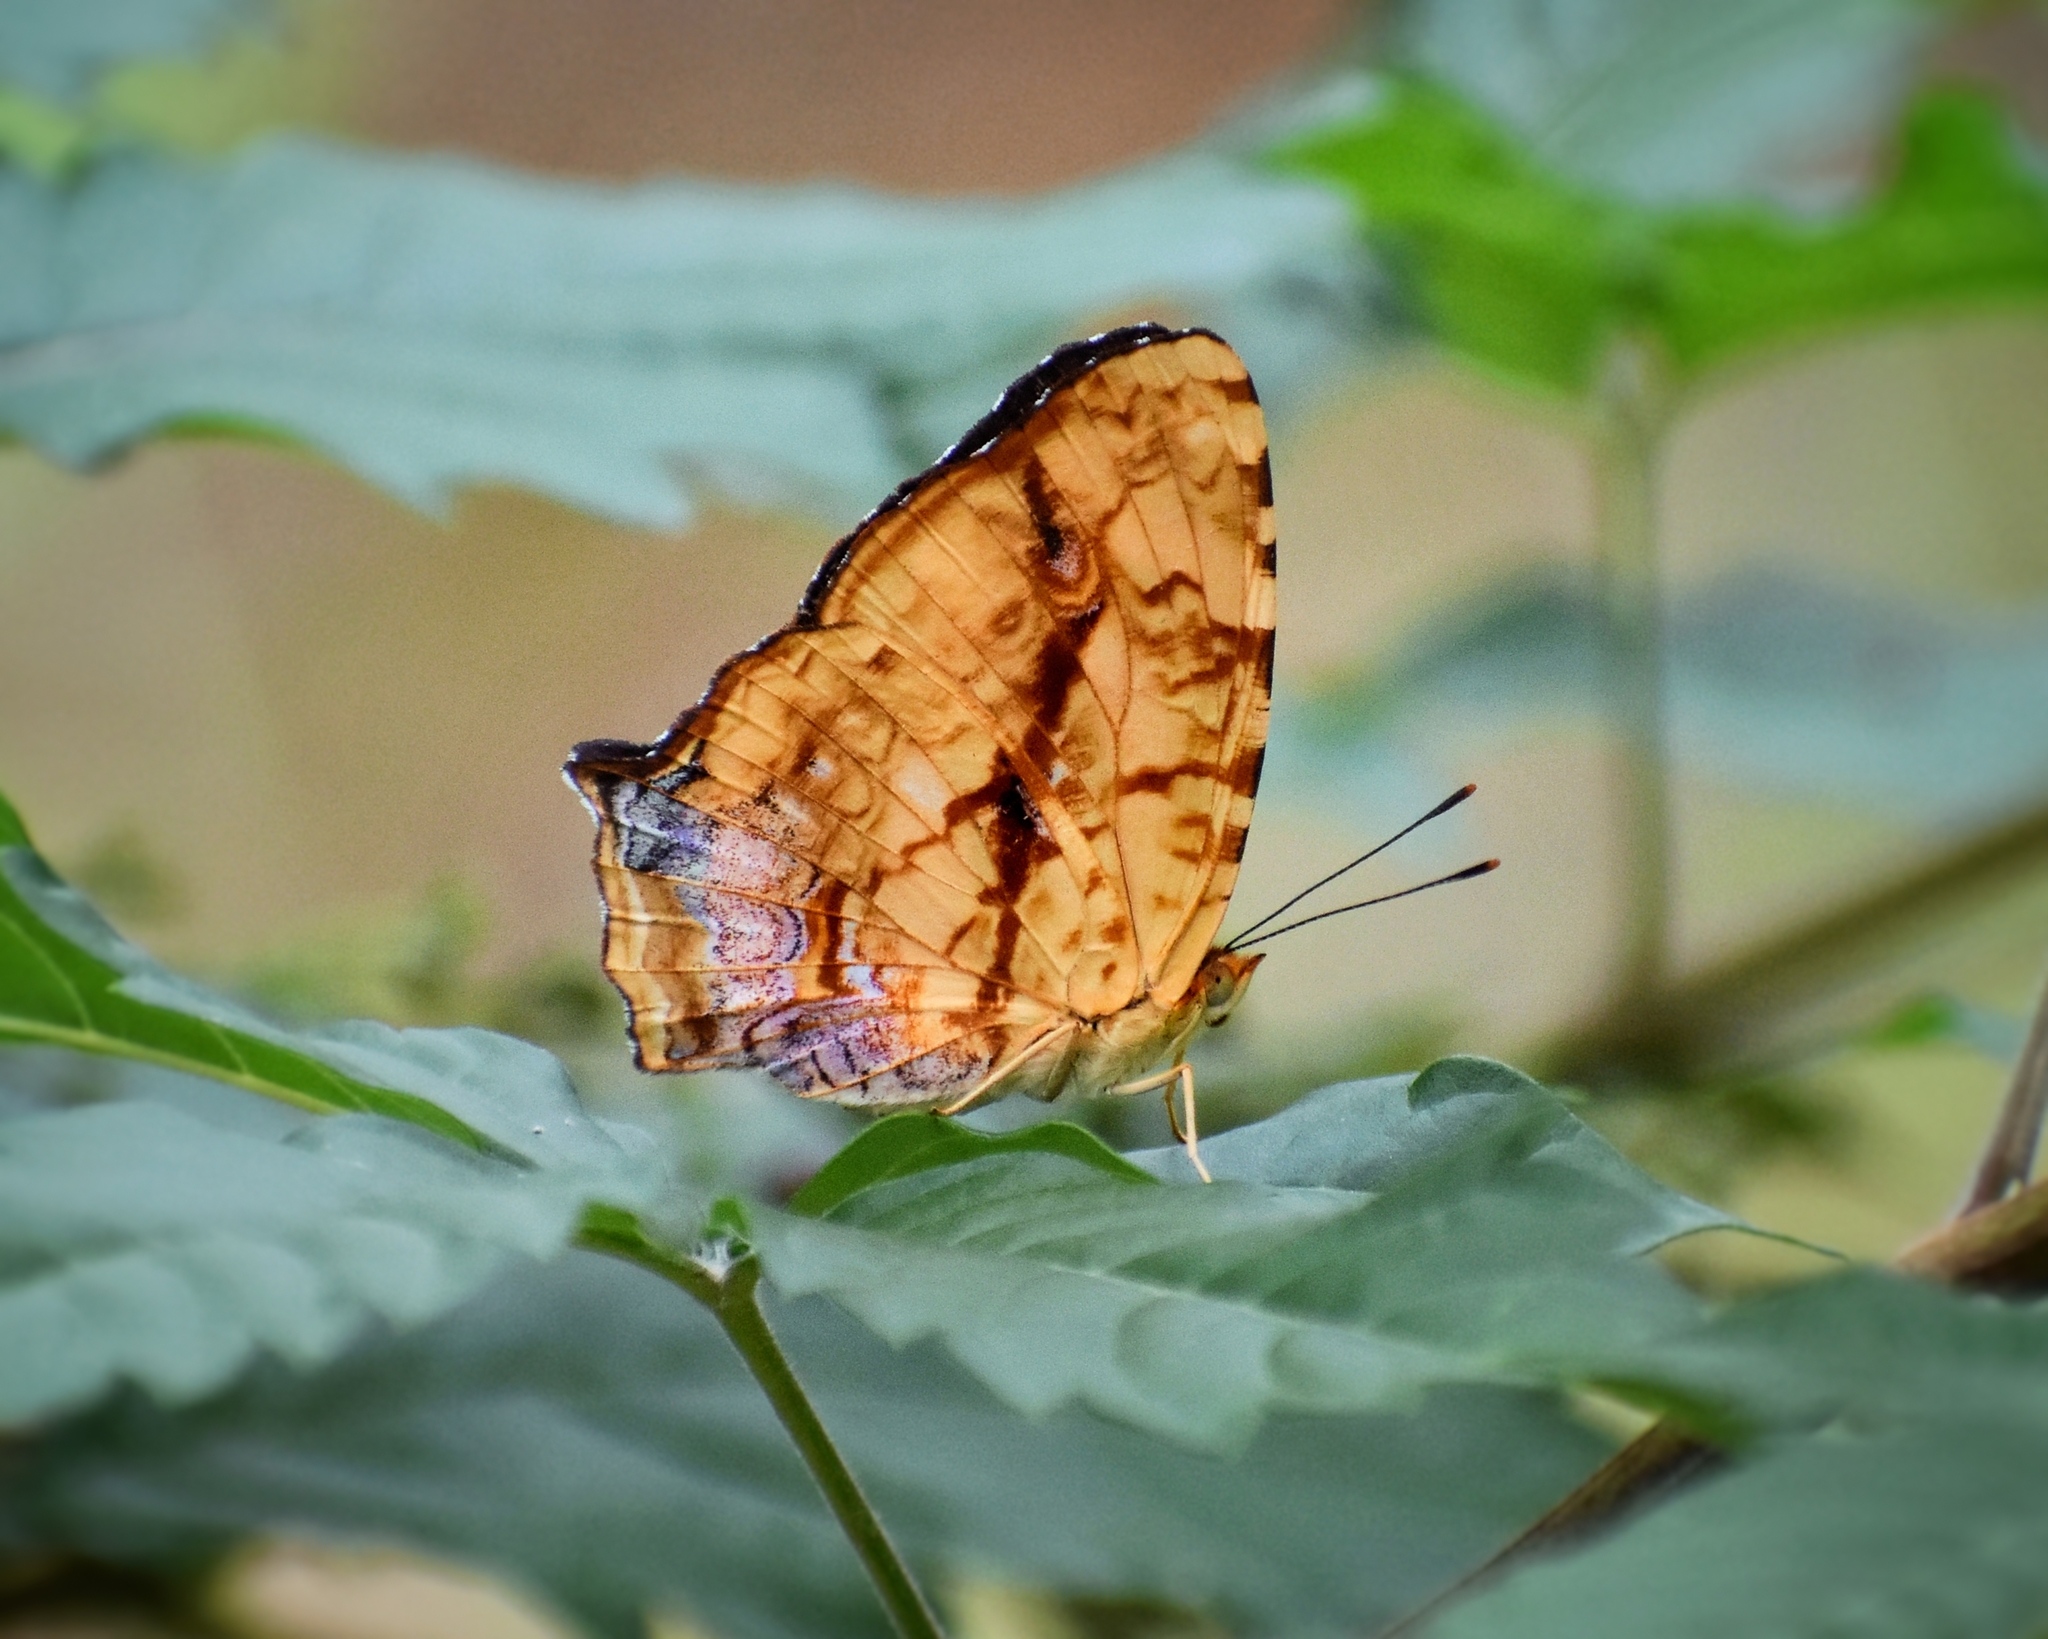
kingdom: Animalia
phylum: Arthropoda
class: Insecta
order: Lepidoptera
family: Nymphalidae
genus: Symbrenthia
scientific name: Symbrenthia hypselis
